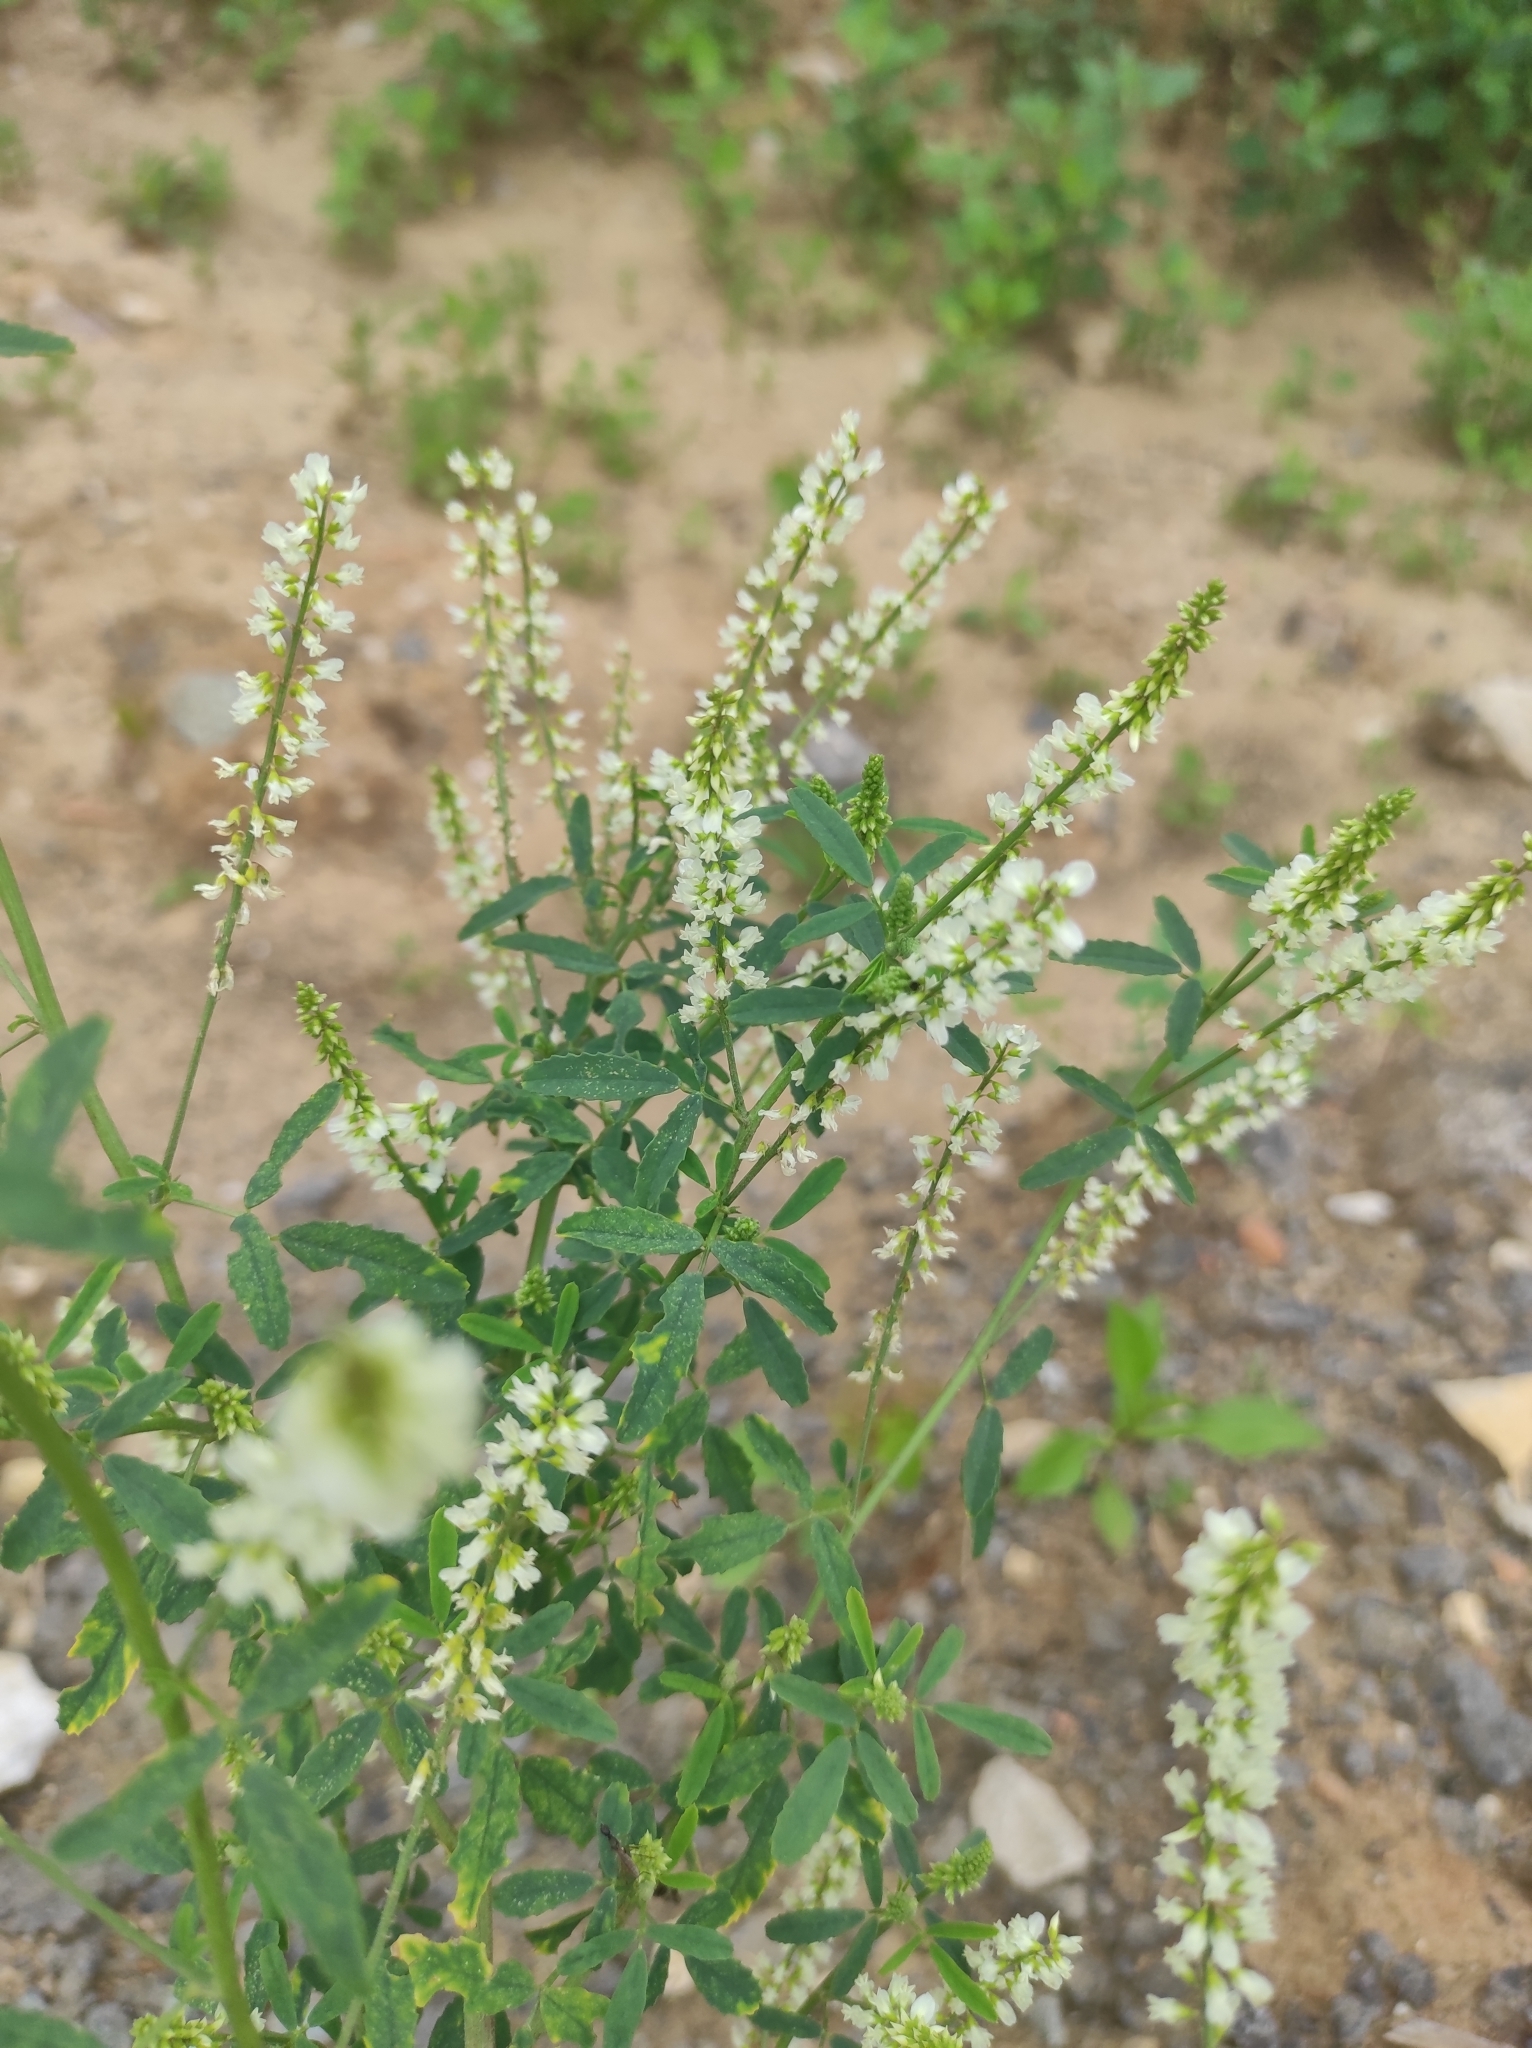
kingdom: Plantae
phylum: Tracheophyta
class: Magnoliopsida
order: Fabales
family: Fabaceae
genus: Melilotus
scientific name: Melilotus albus
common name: White melilot
